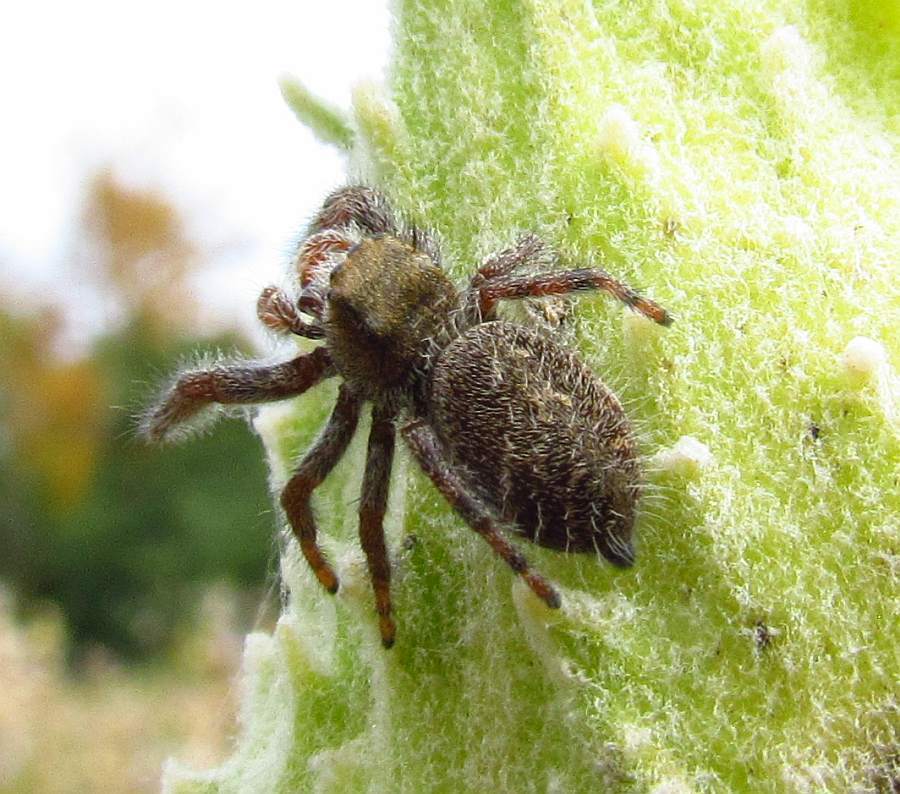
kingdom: Animalia
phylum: Arthropoda
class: Arachnida
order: Araneae
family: Salticidae
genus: Phidippus
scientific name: Phidippus princeps
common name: Grayish jumping spider
